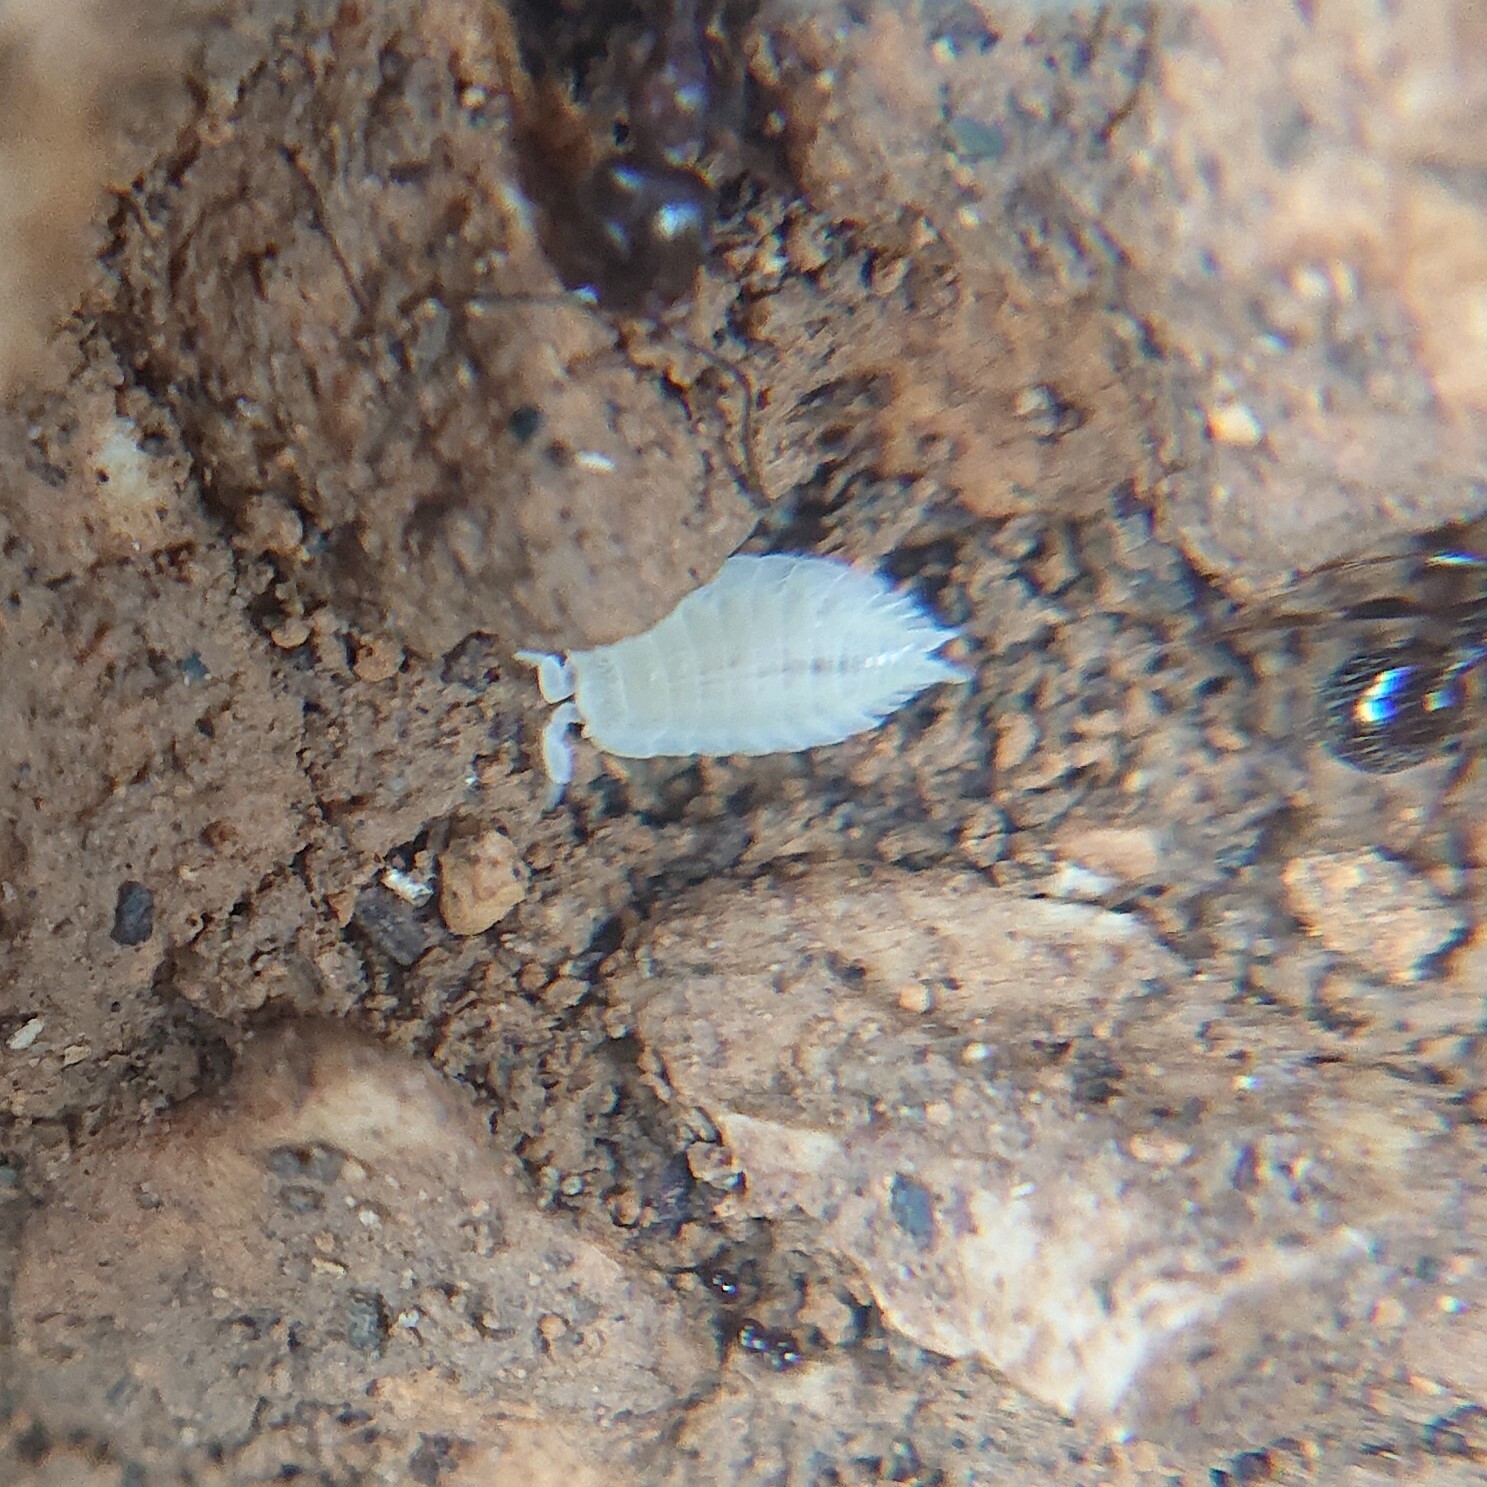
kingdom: Animalia
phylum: Arthropoda
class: Malacostraca
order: Isopoda
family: Platyarthridae
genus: Platyarthrus
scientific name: Platyarthrus hoffmannseggii
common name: Ant woodlouse
